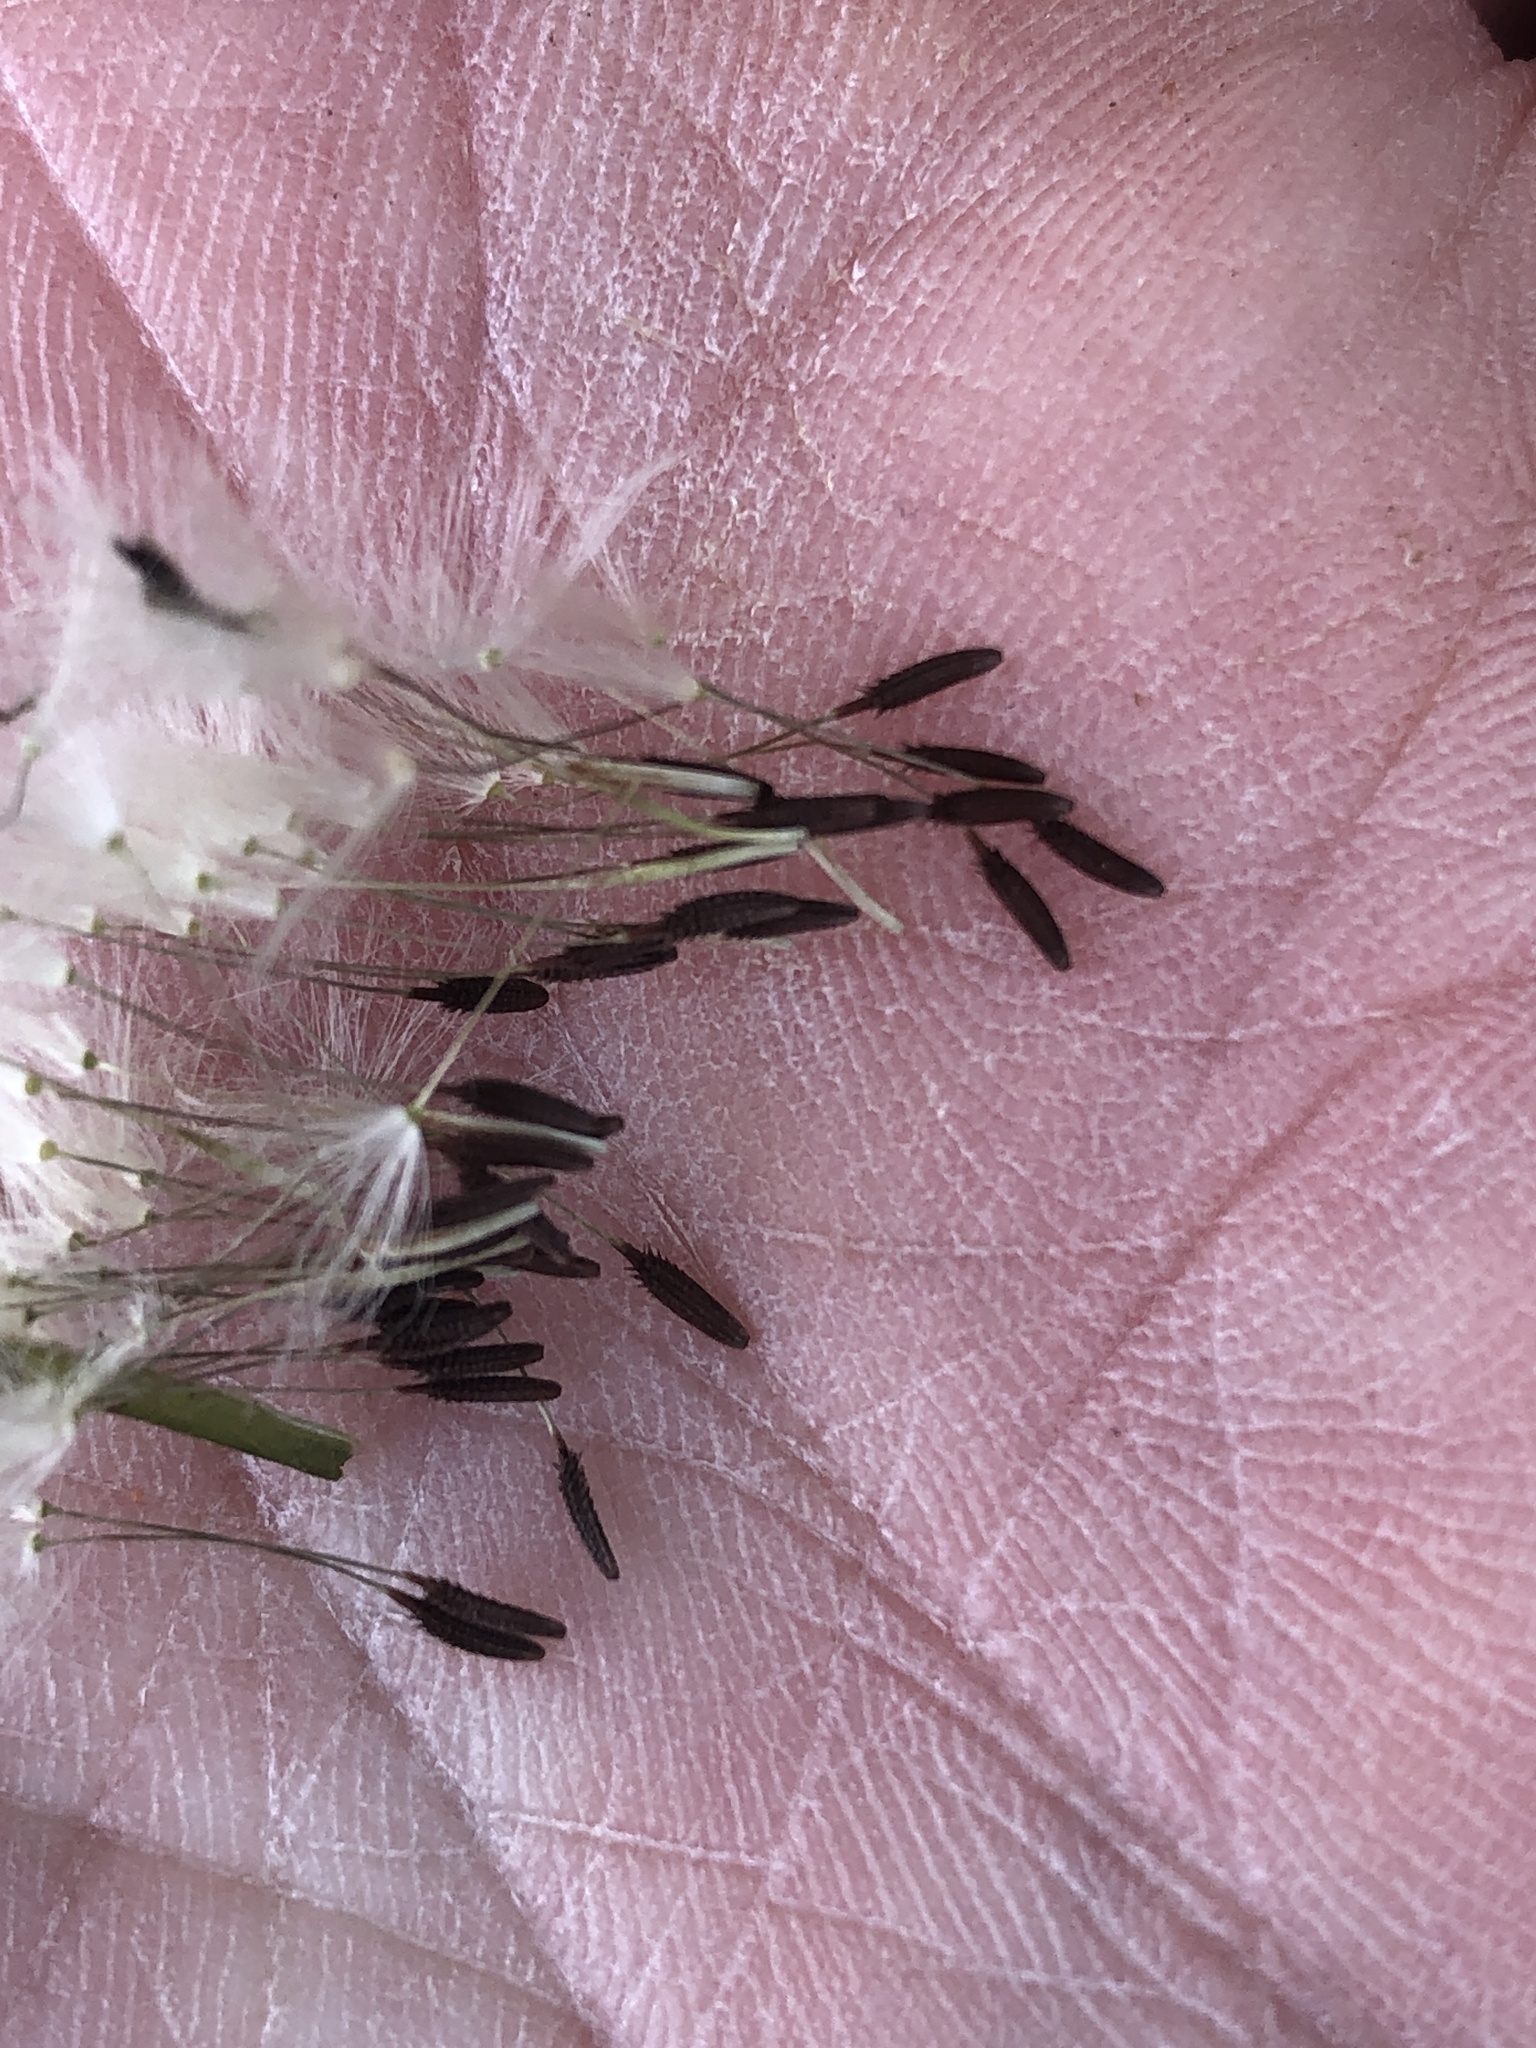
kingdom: Plantae
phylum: Tracheophyta
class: Magnoliopsida
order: Asterales
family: Asteraceae
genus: Taraxacum
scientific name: Taraxacum officinale
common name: Common dandelion
